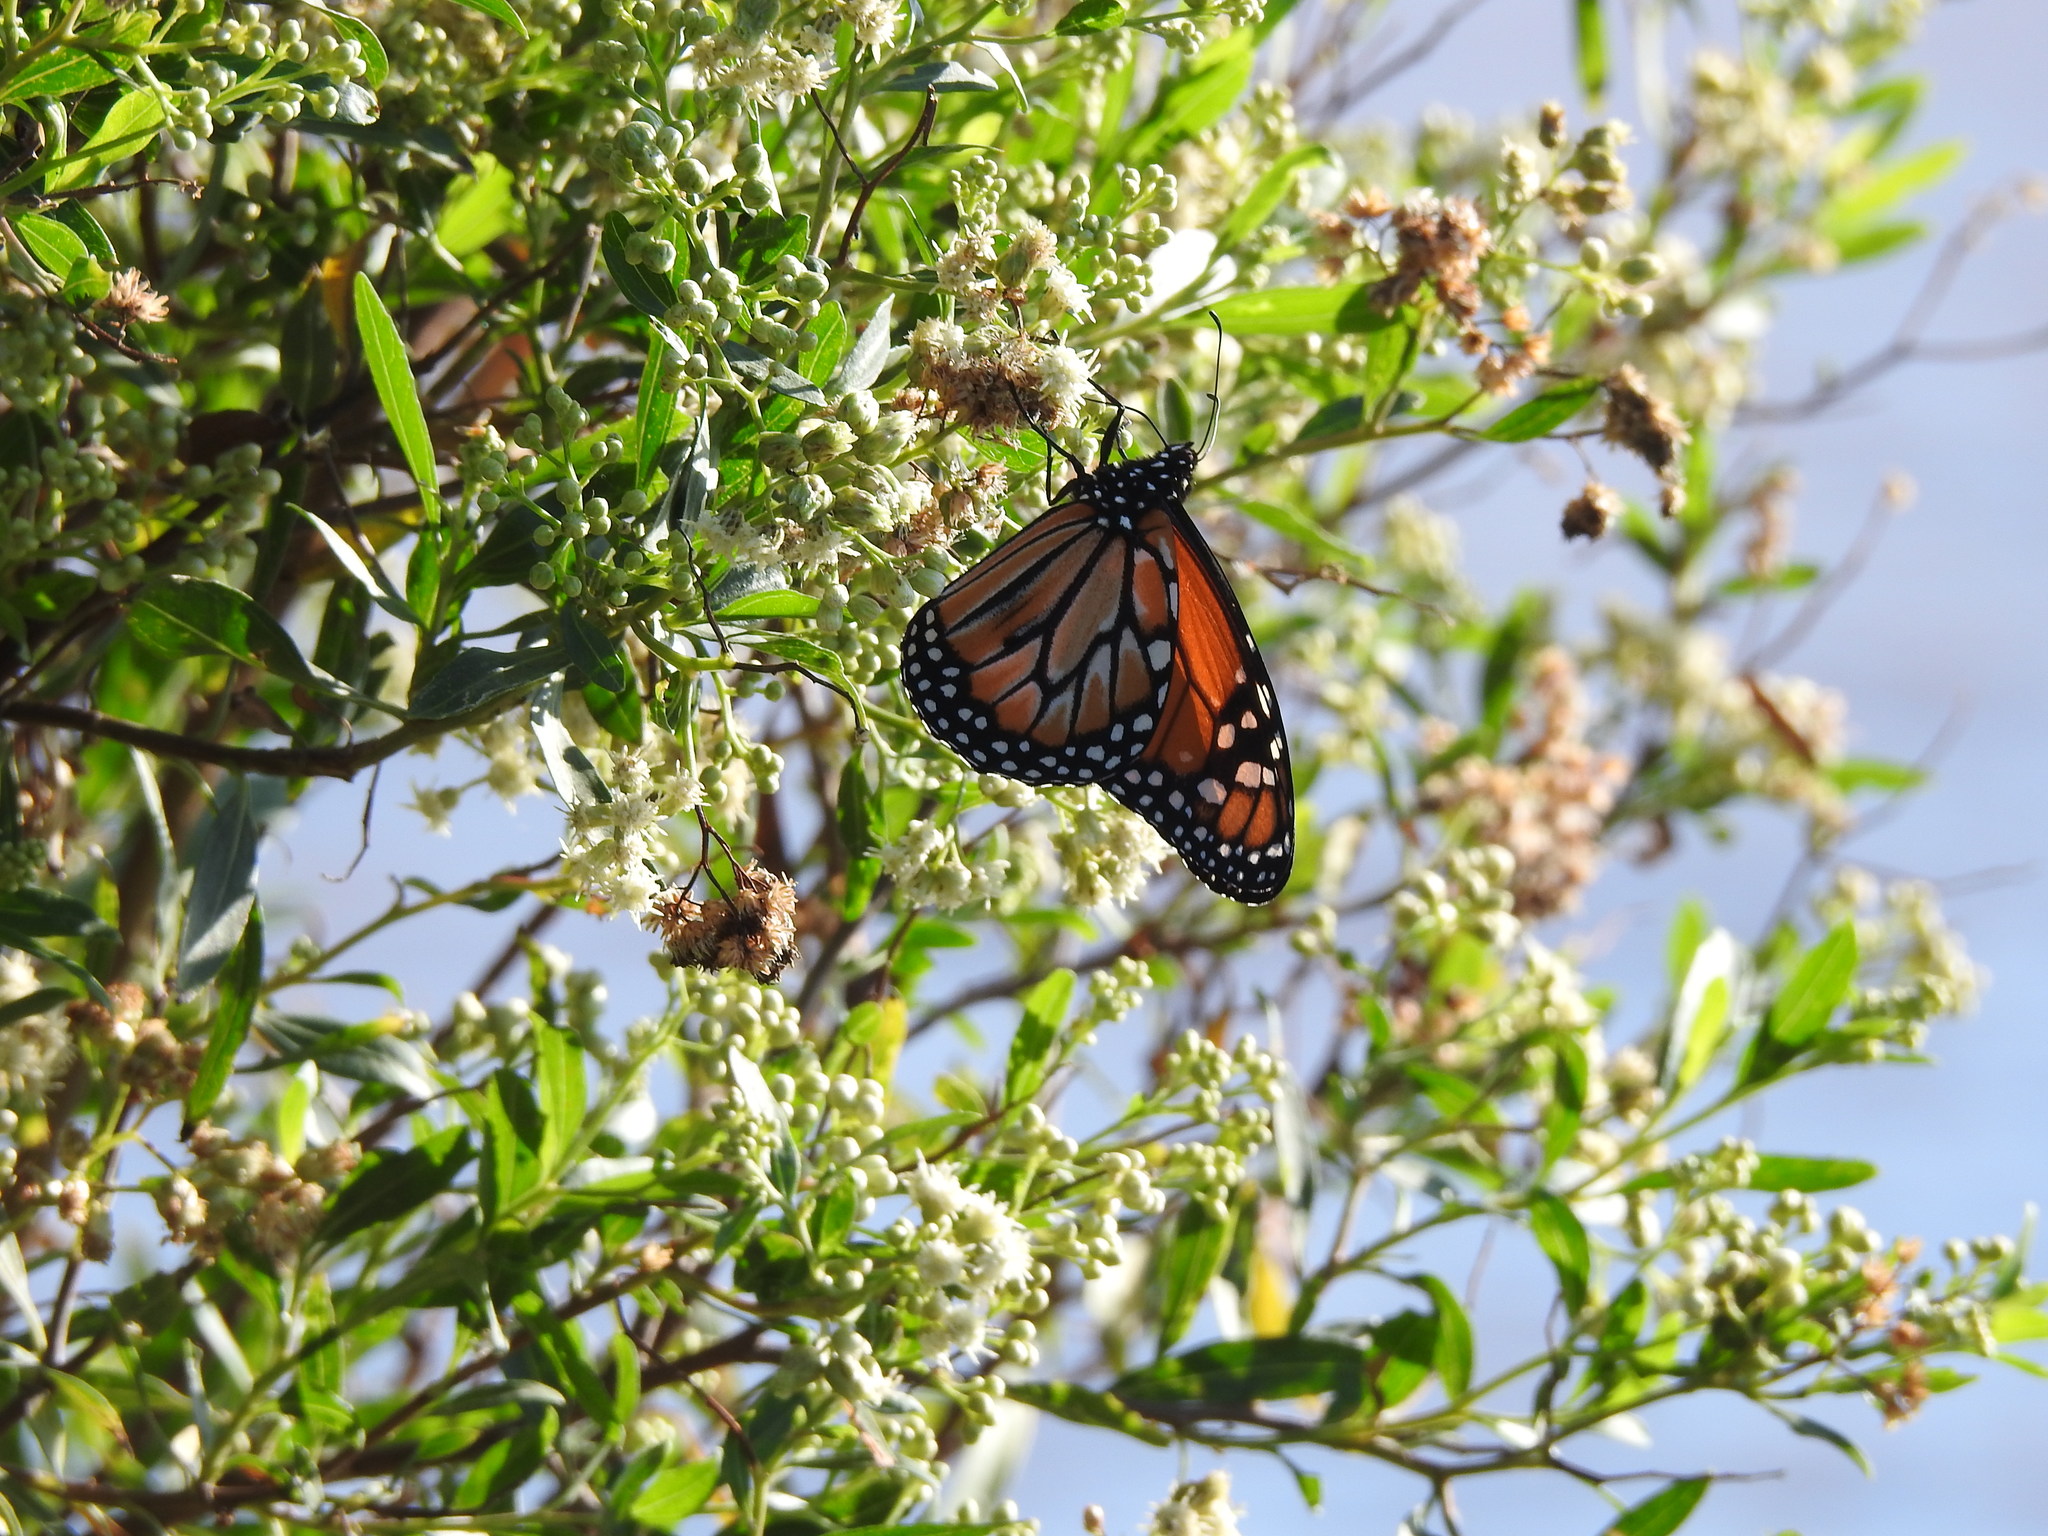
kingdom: Animalia
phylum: Arthropoda
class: Insecta
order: Lepidoptera
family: Nymphalidae
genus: Danaus
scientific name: Danaus erippus
